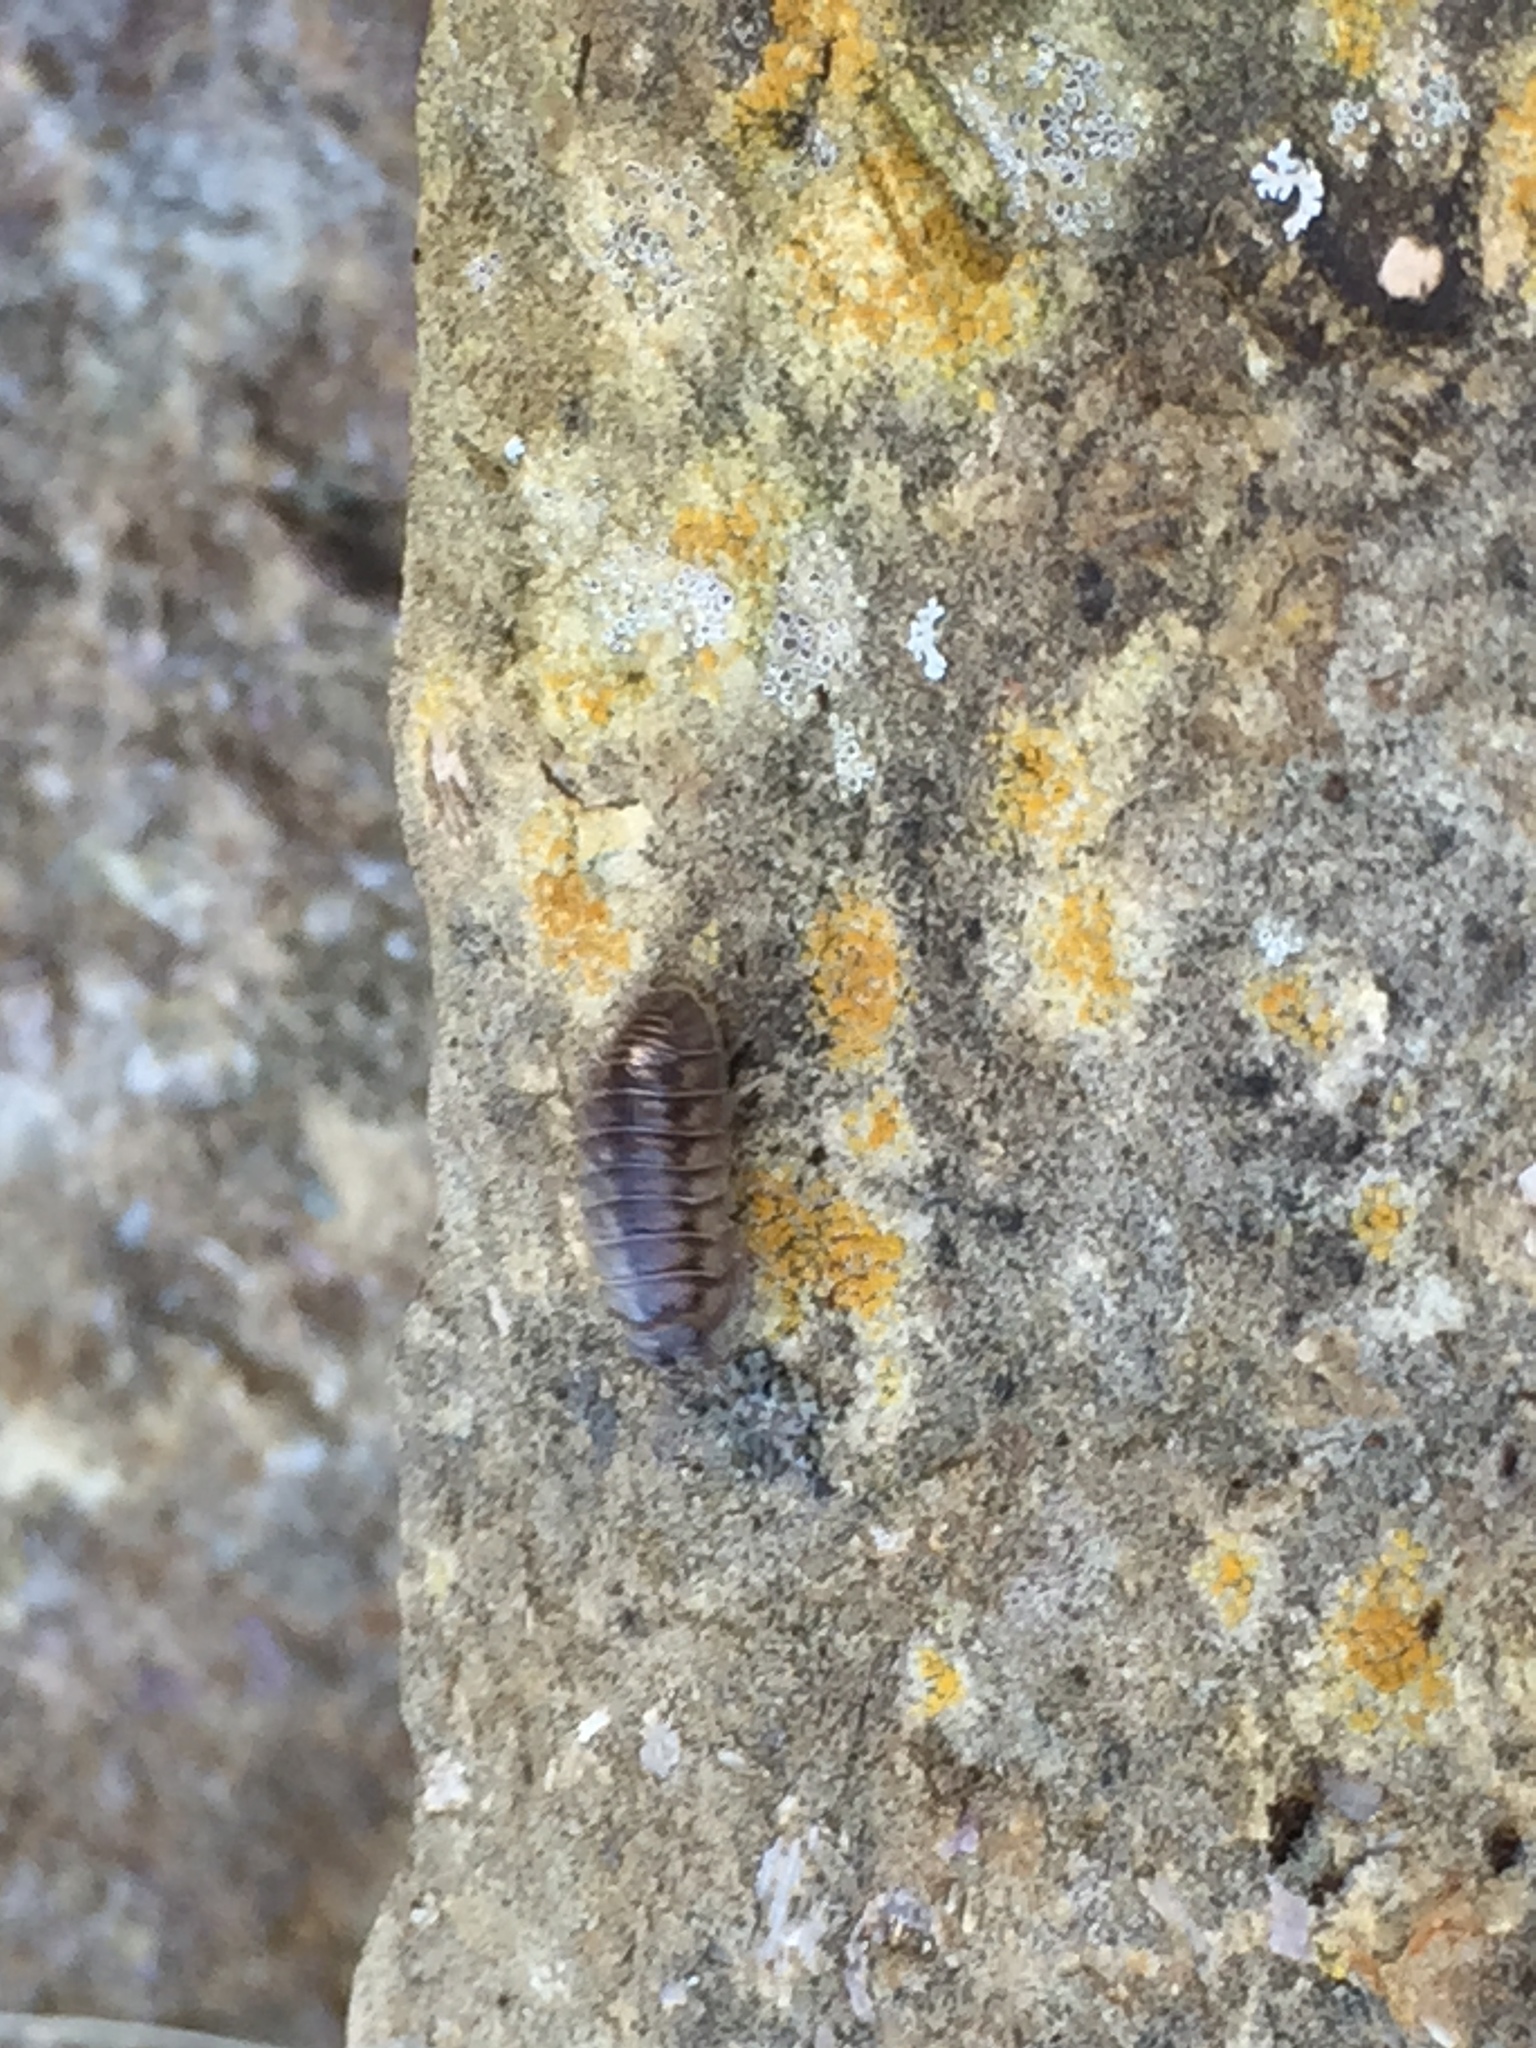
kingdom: Animalia
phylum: Arthropoda
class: Malacostraca
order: Isopoda
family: Armadillidiidae
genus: Armadillidium
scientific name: Armadillidium nasatum
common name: Isopod
